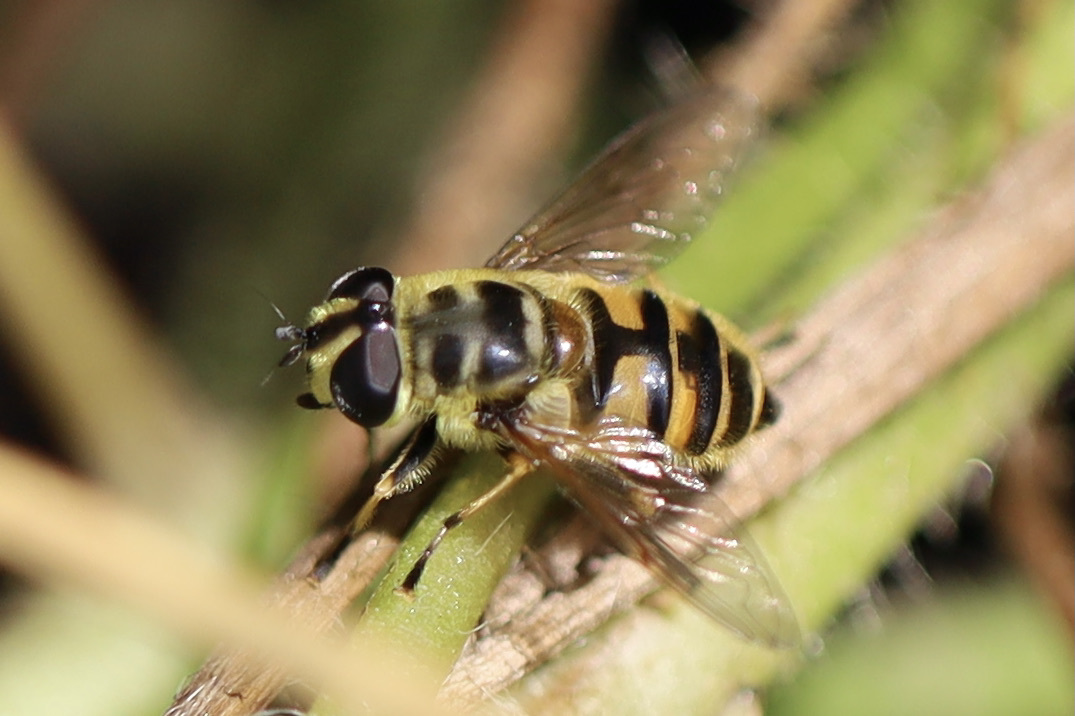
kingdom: Animalia
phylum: Arthropoda
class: Insecta
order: Diptera
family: Syrphidae
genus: Myathropa
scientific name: Myathropa florea
